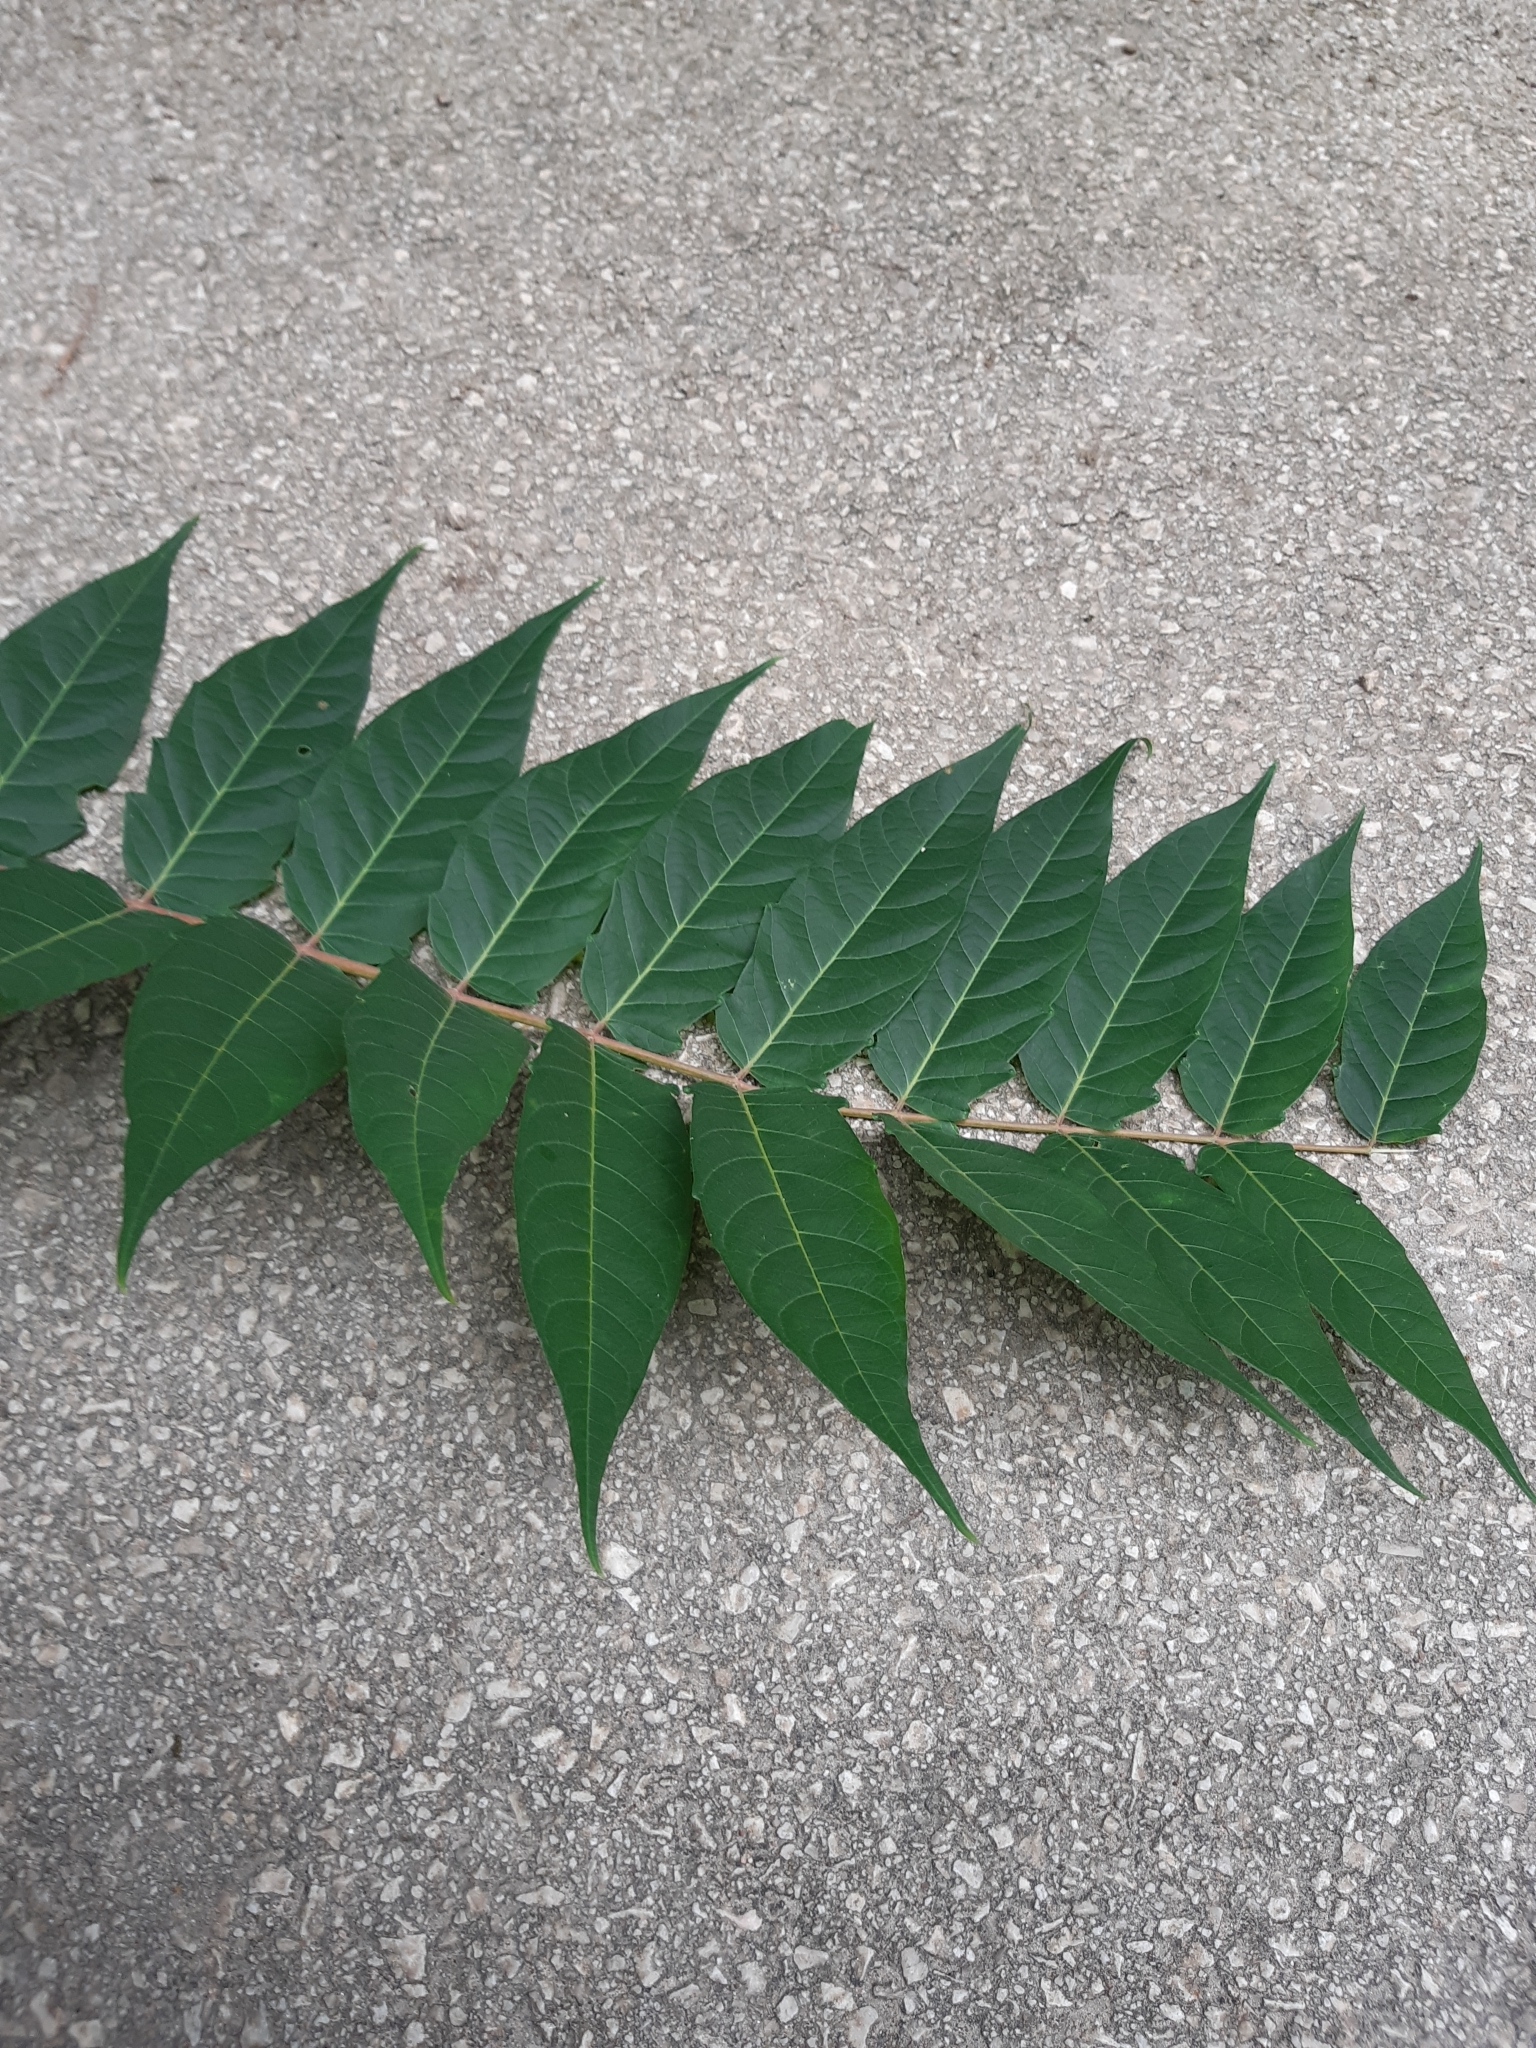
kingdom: Plantae
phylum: Tracheophyta
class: Magnoliopsida
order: Sapindales
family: Simaroubaceae
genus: Ailanthus
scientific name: Ailanthus altissima
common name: Tree-of-heaven
